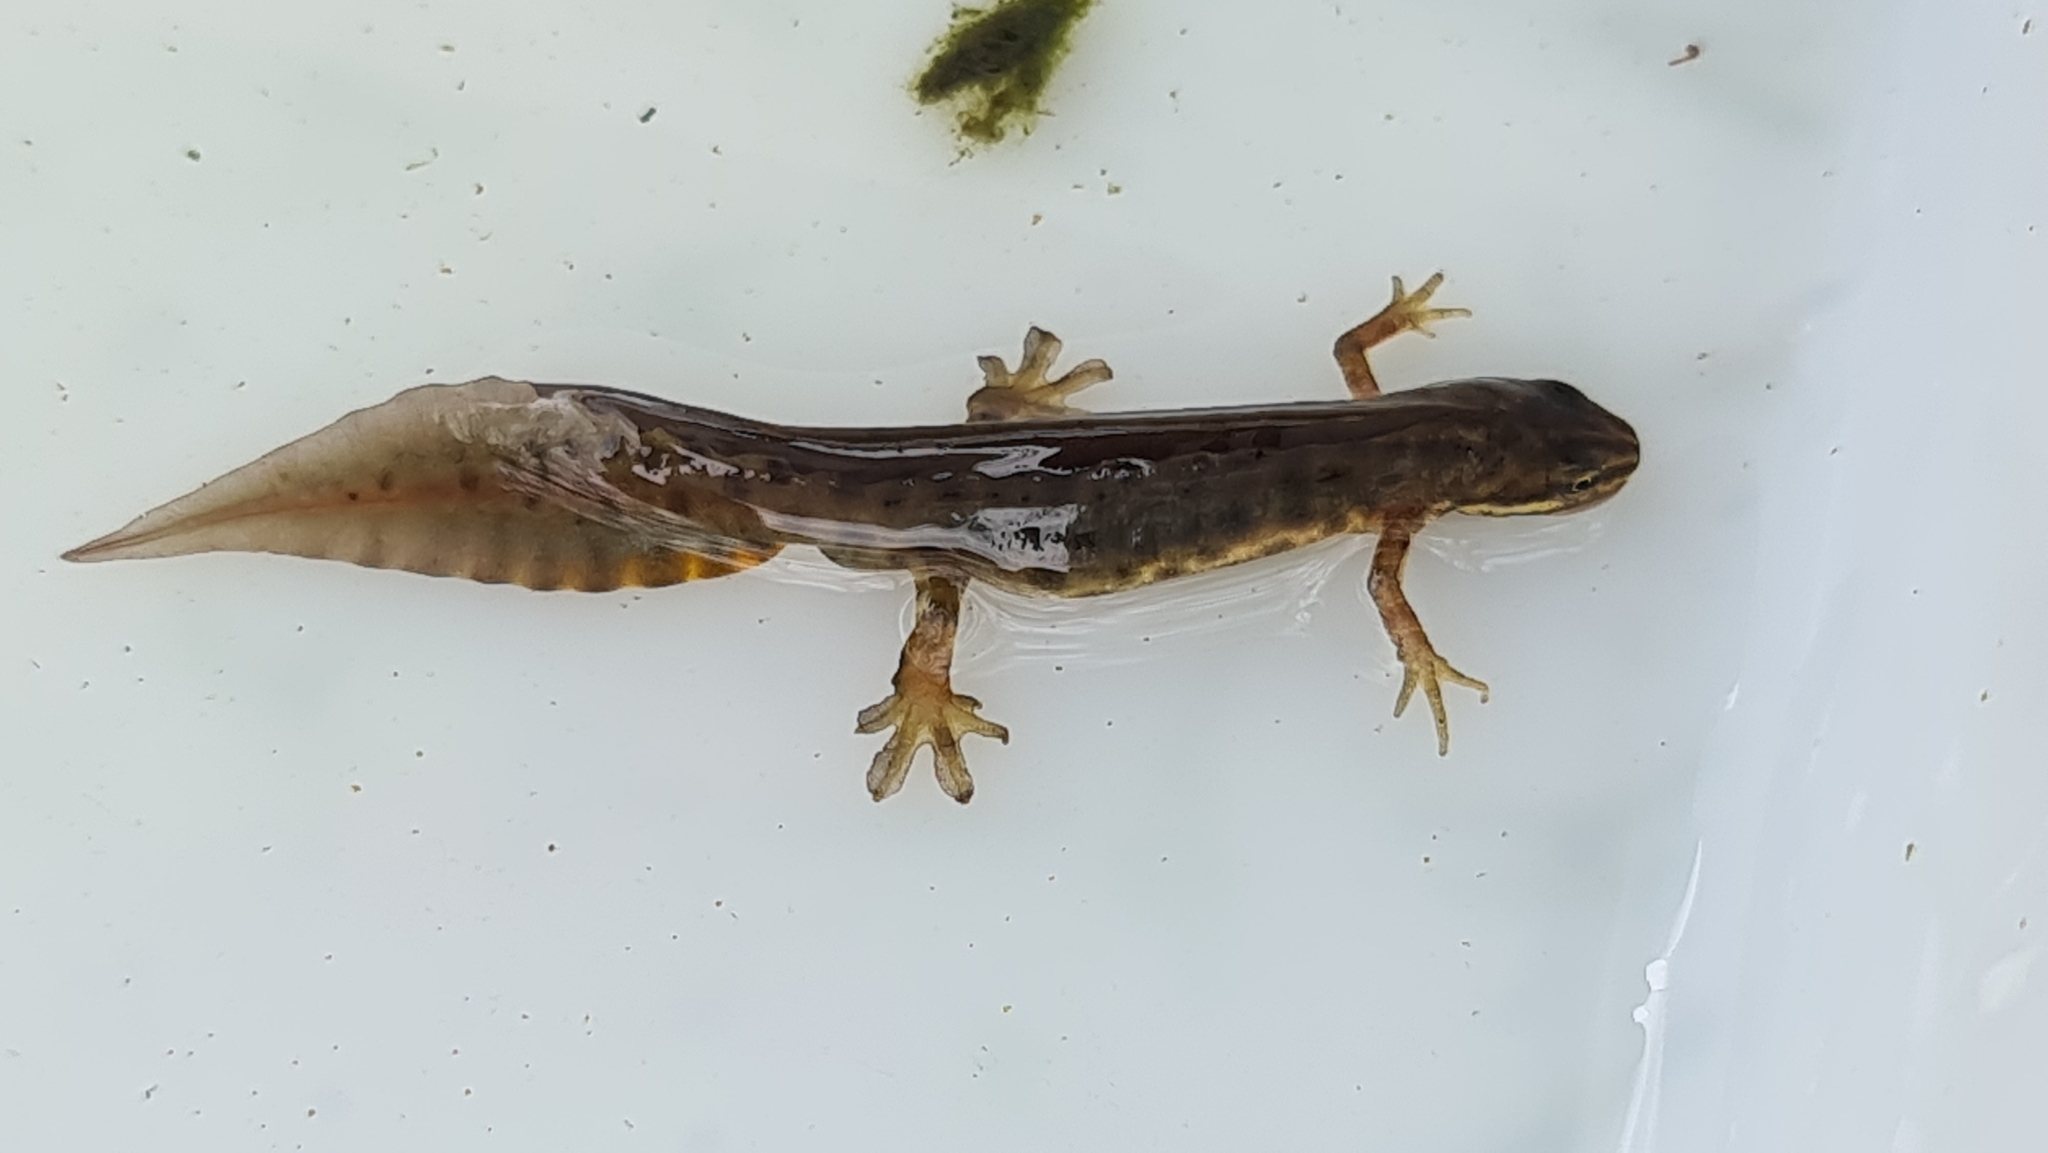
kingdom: Animalia
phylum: Chordata
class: Amphibia
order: Caudata
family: Salamandridae
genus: Lissotriton
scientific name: Lissotriton vulgaris
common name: Smooth newt
